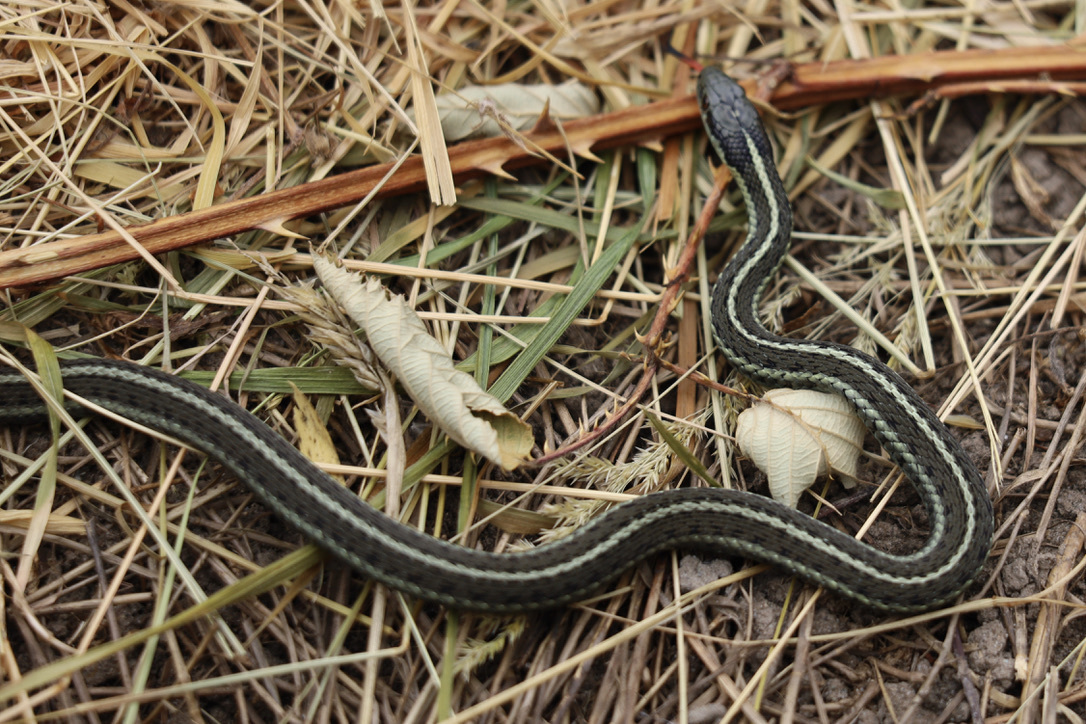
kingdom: Animalia
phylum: Chordata
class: Squamata
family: Colubridae
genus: Thamnophis
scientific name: Thamnophis ordinoides
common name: Northwestern garter snake
